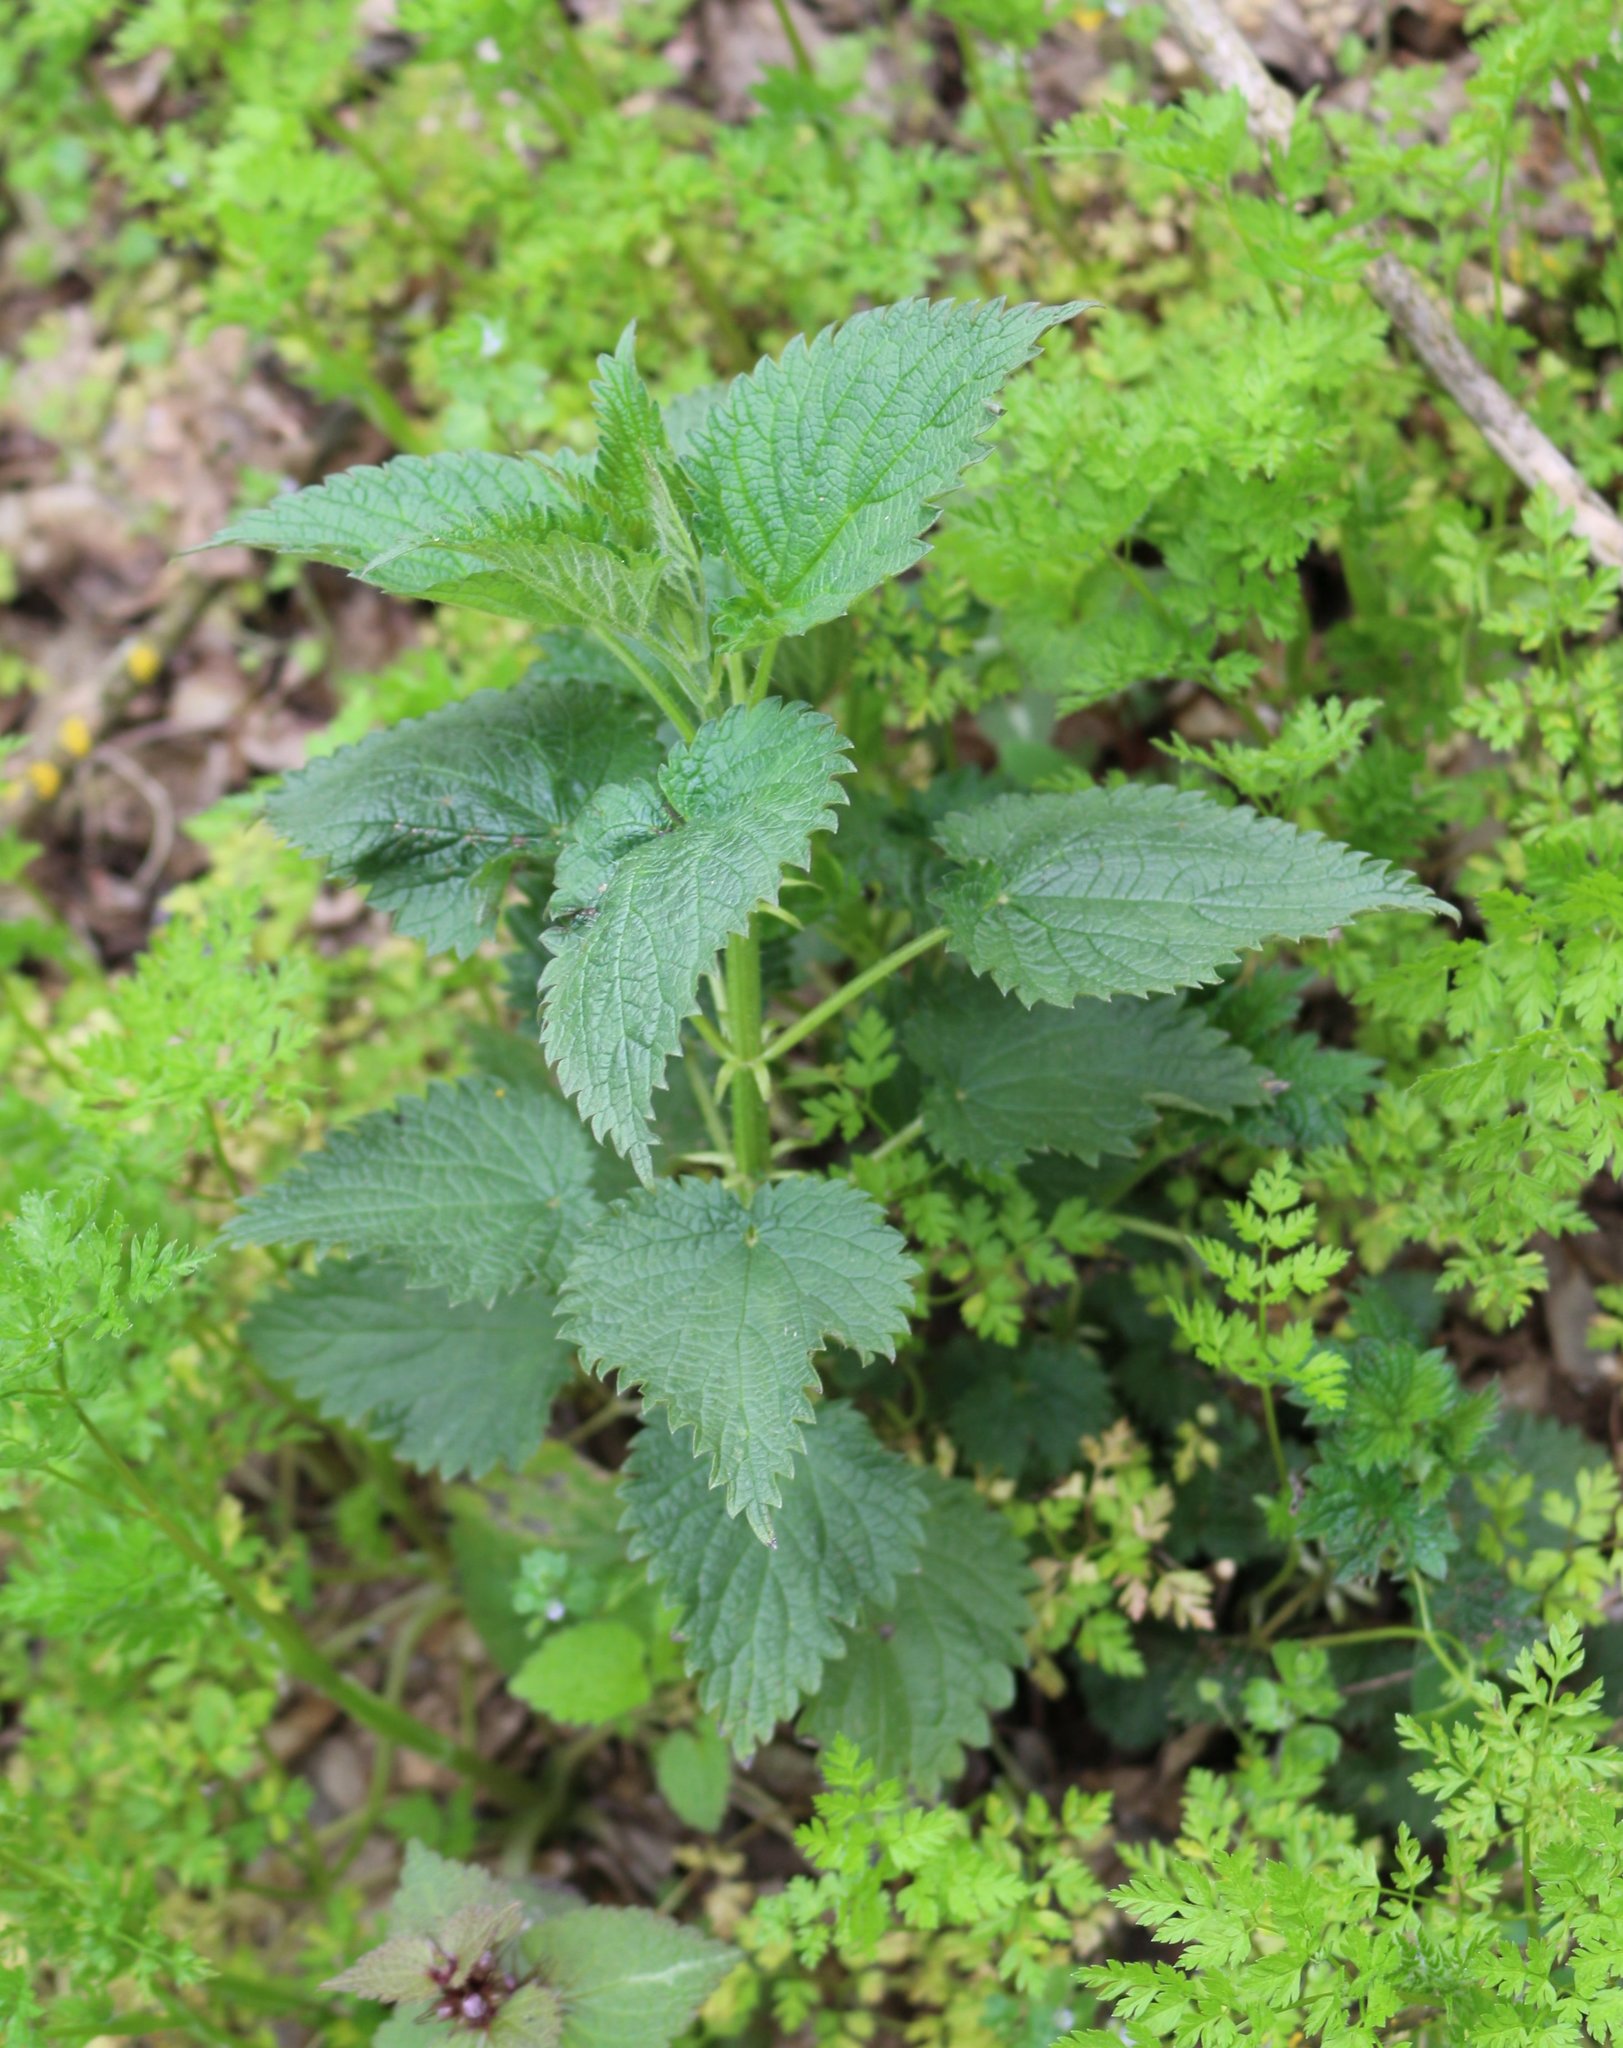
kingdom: Plantae
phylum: Tracheophyta
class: Magnoliopsida
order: Rosales
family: Urticaceae
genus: Urtica
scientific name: Urtica dioica
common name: Common nettle
